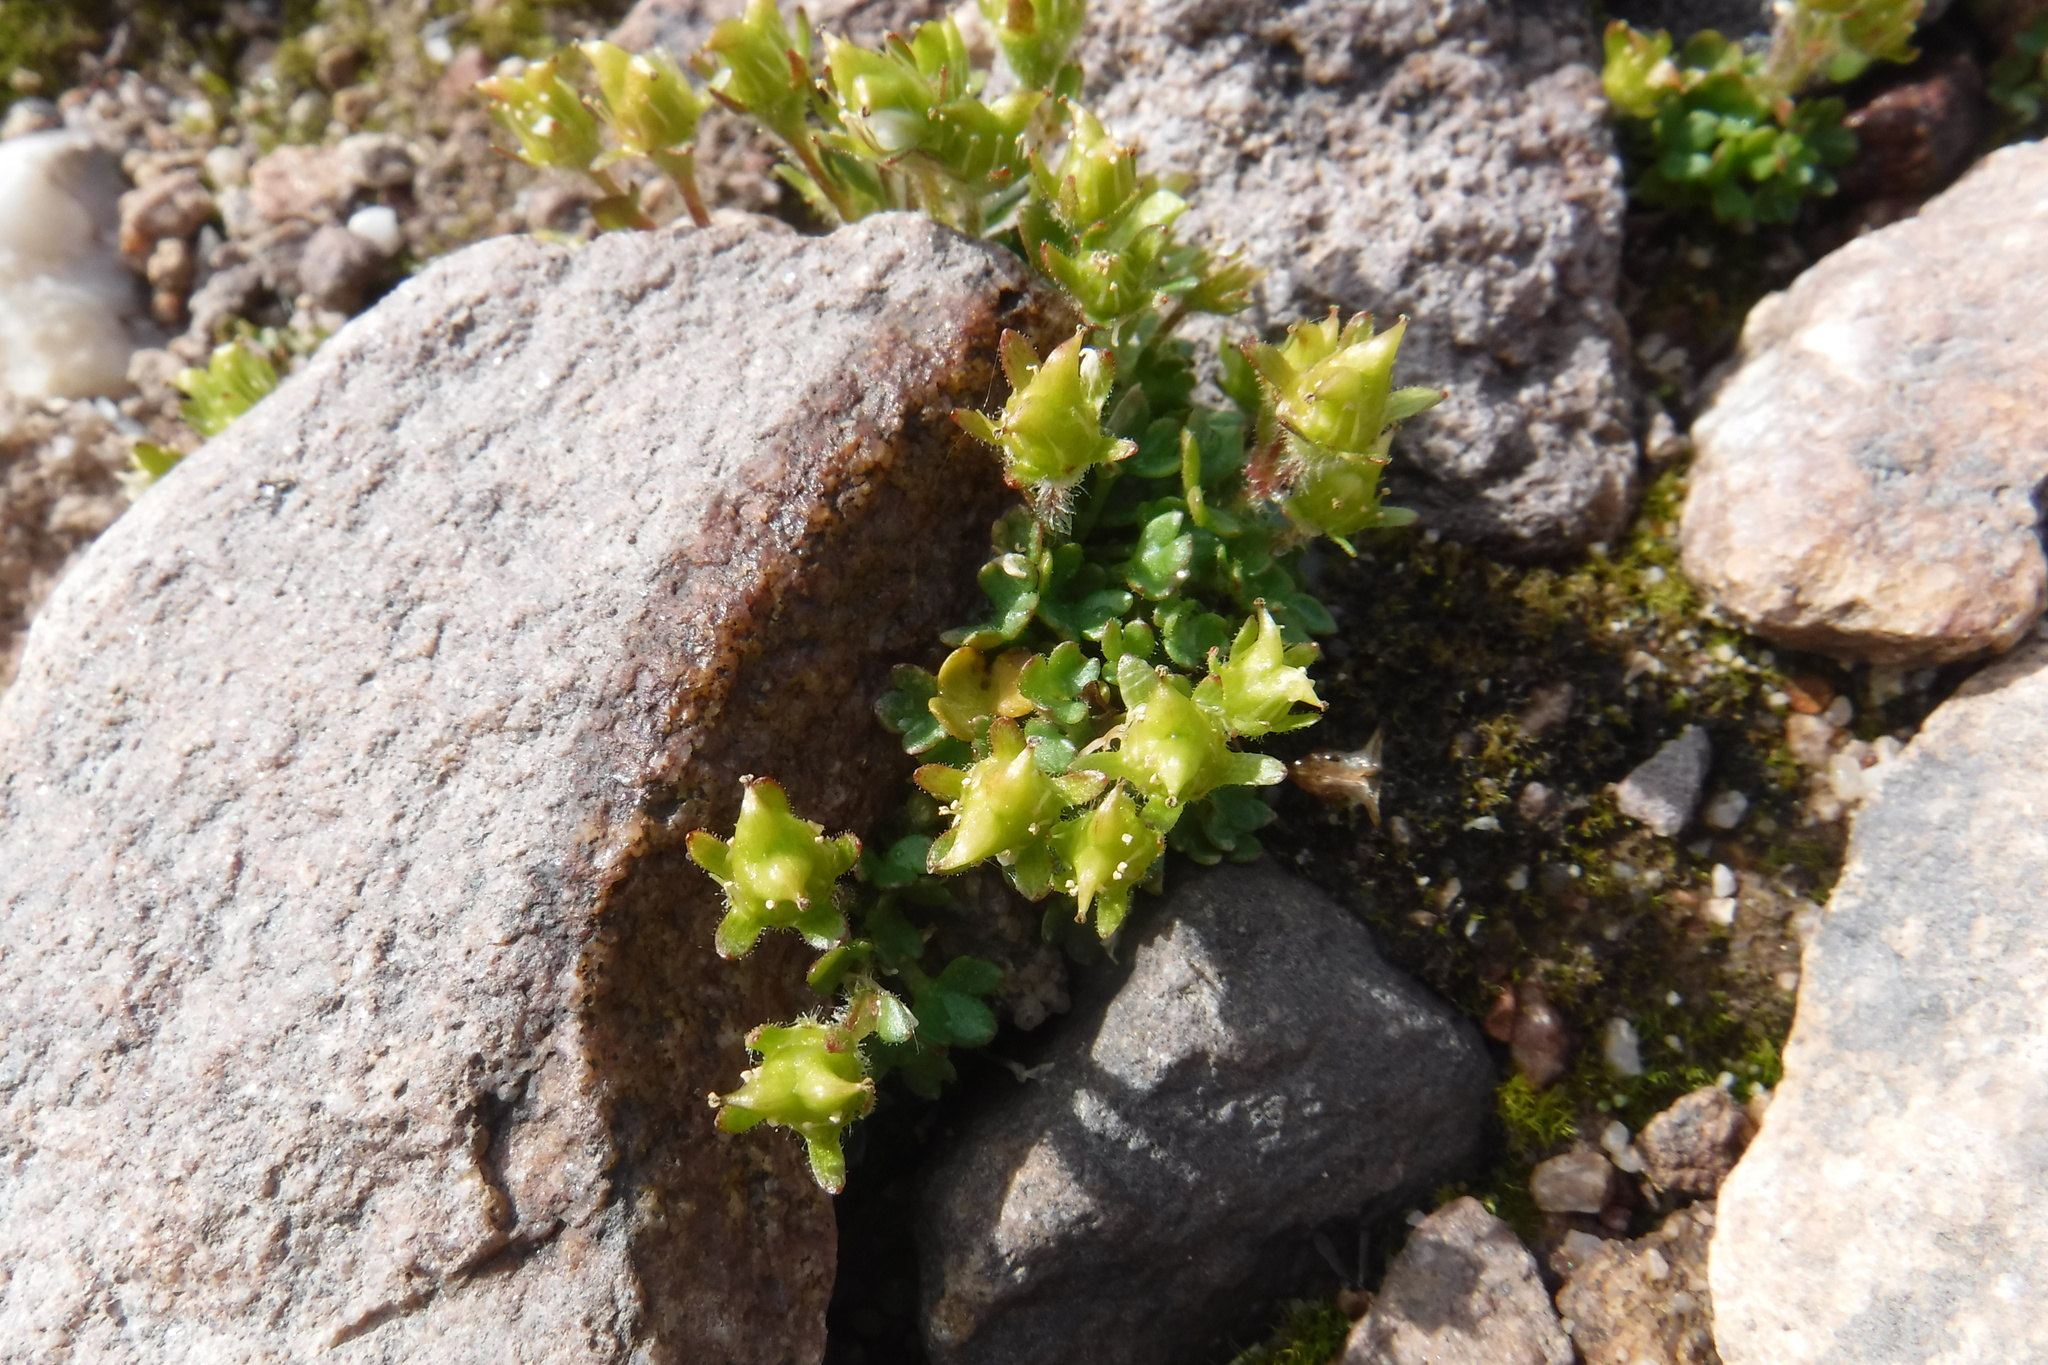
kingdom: Plantae
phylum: Tracheophyta
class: Magnoliopsida
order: Saxifragales
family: Saxifragaceae
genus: Saxifraga
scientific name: Saxifraga rivularis
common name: Highland saxifrage
